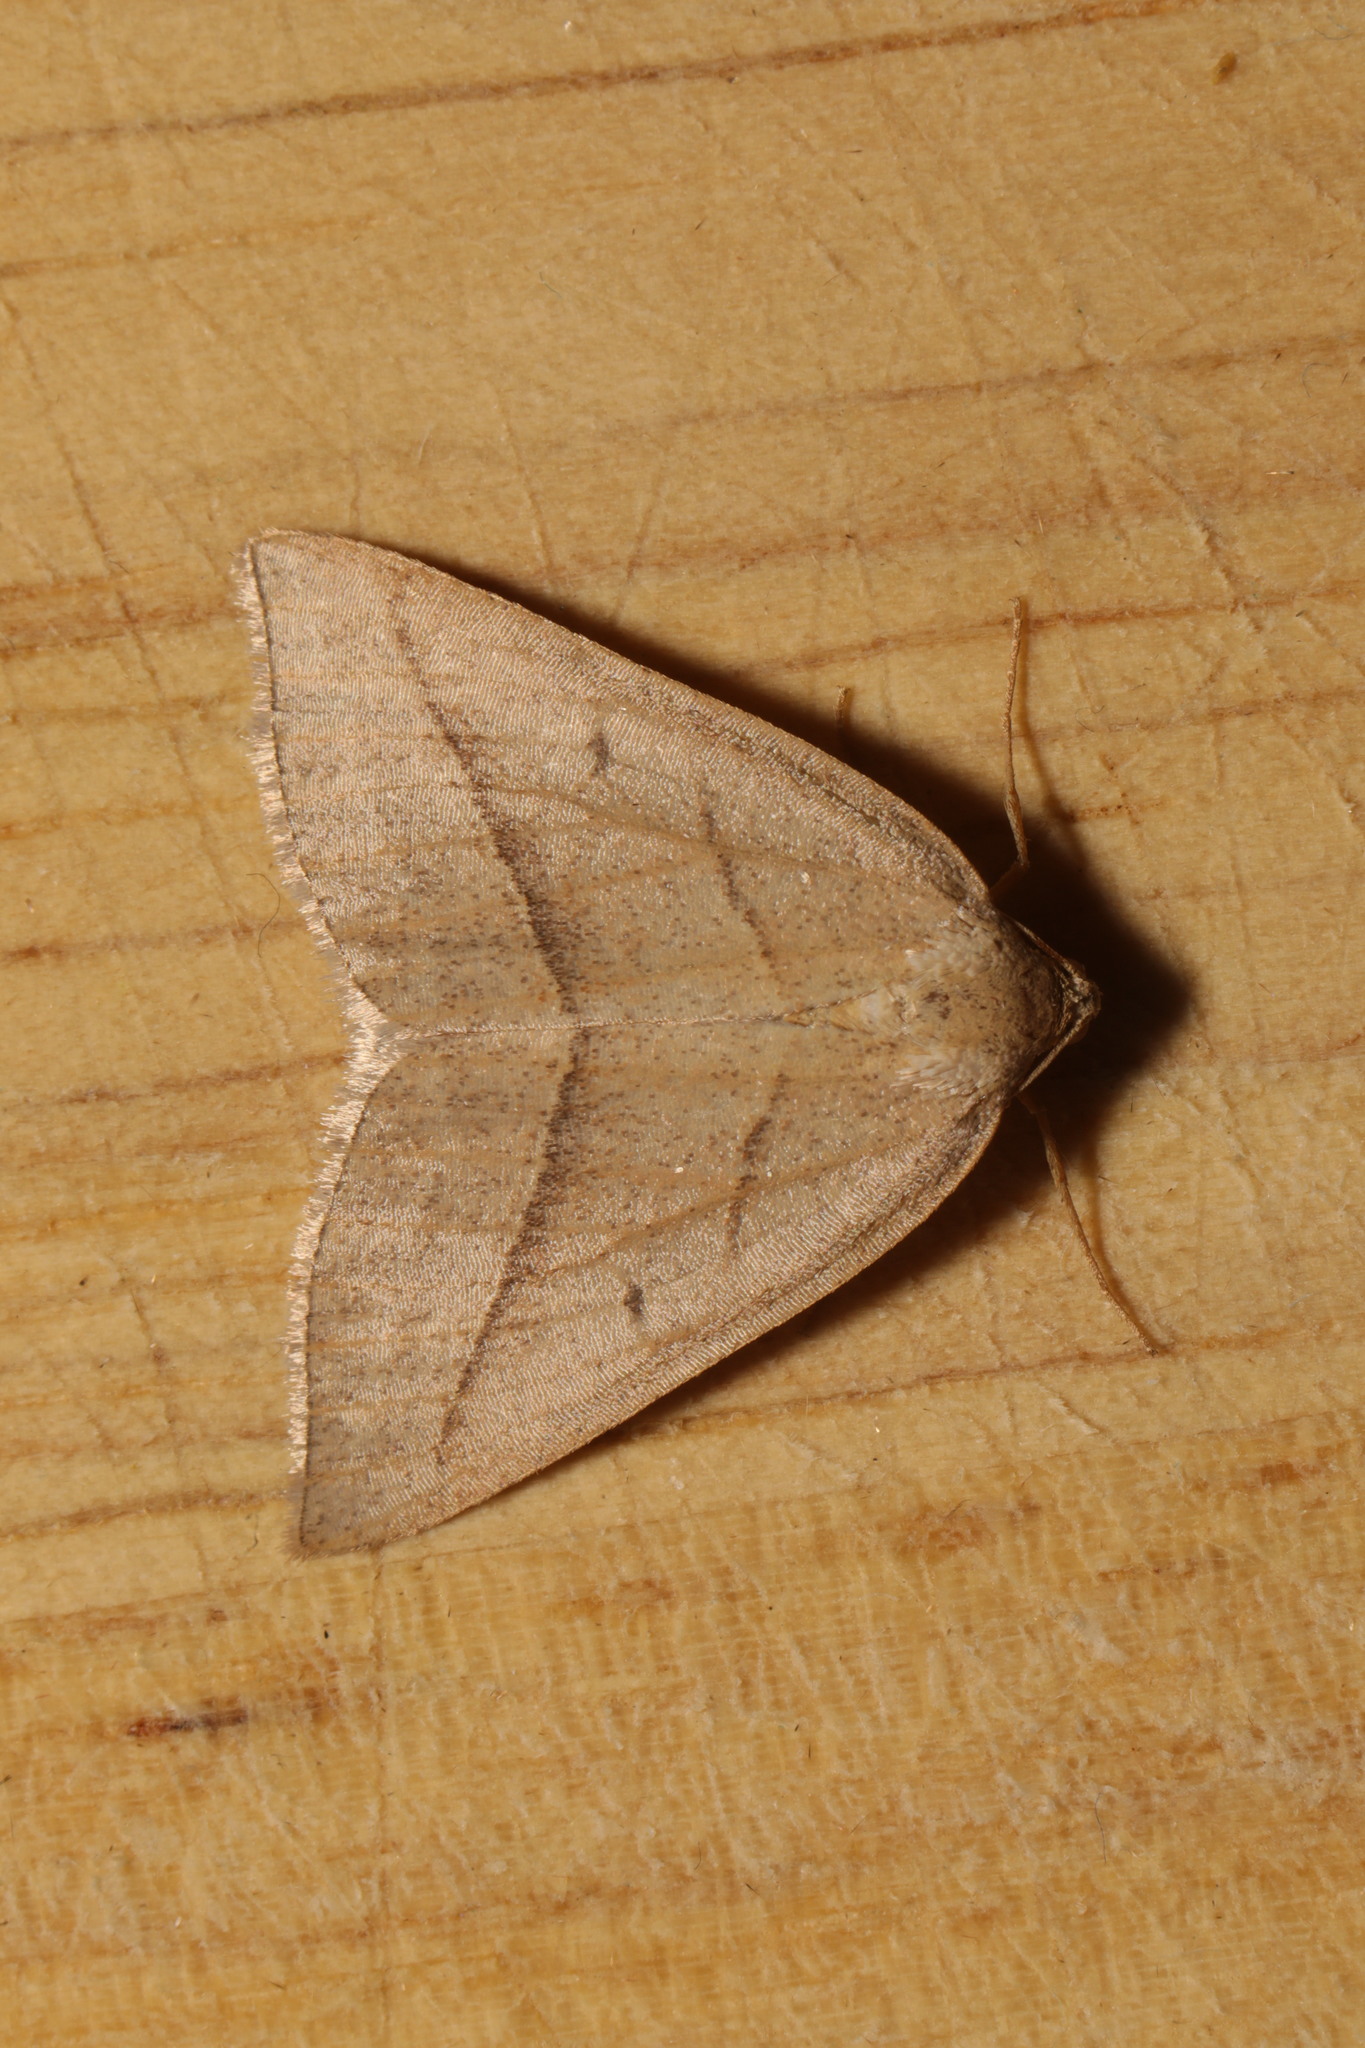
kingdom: Animalia
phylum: Arthropoda
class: Insecta
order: Lepidoptera
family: Pterophoridae
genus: Pterophorus
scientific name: Pterophorus Petrophora chlorosata
